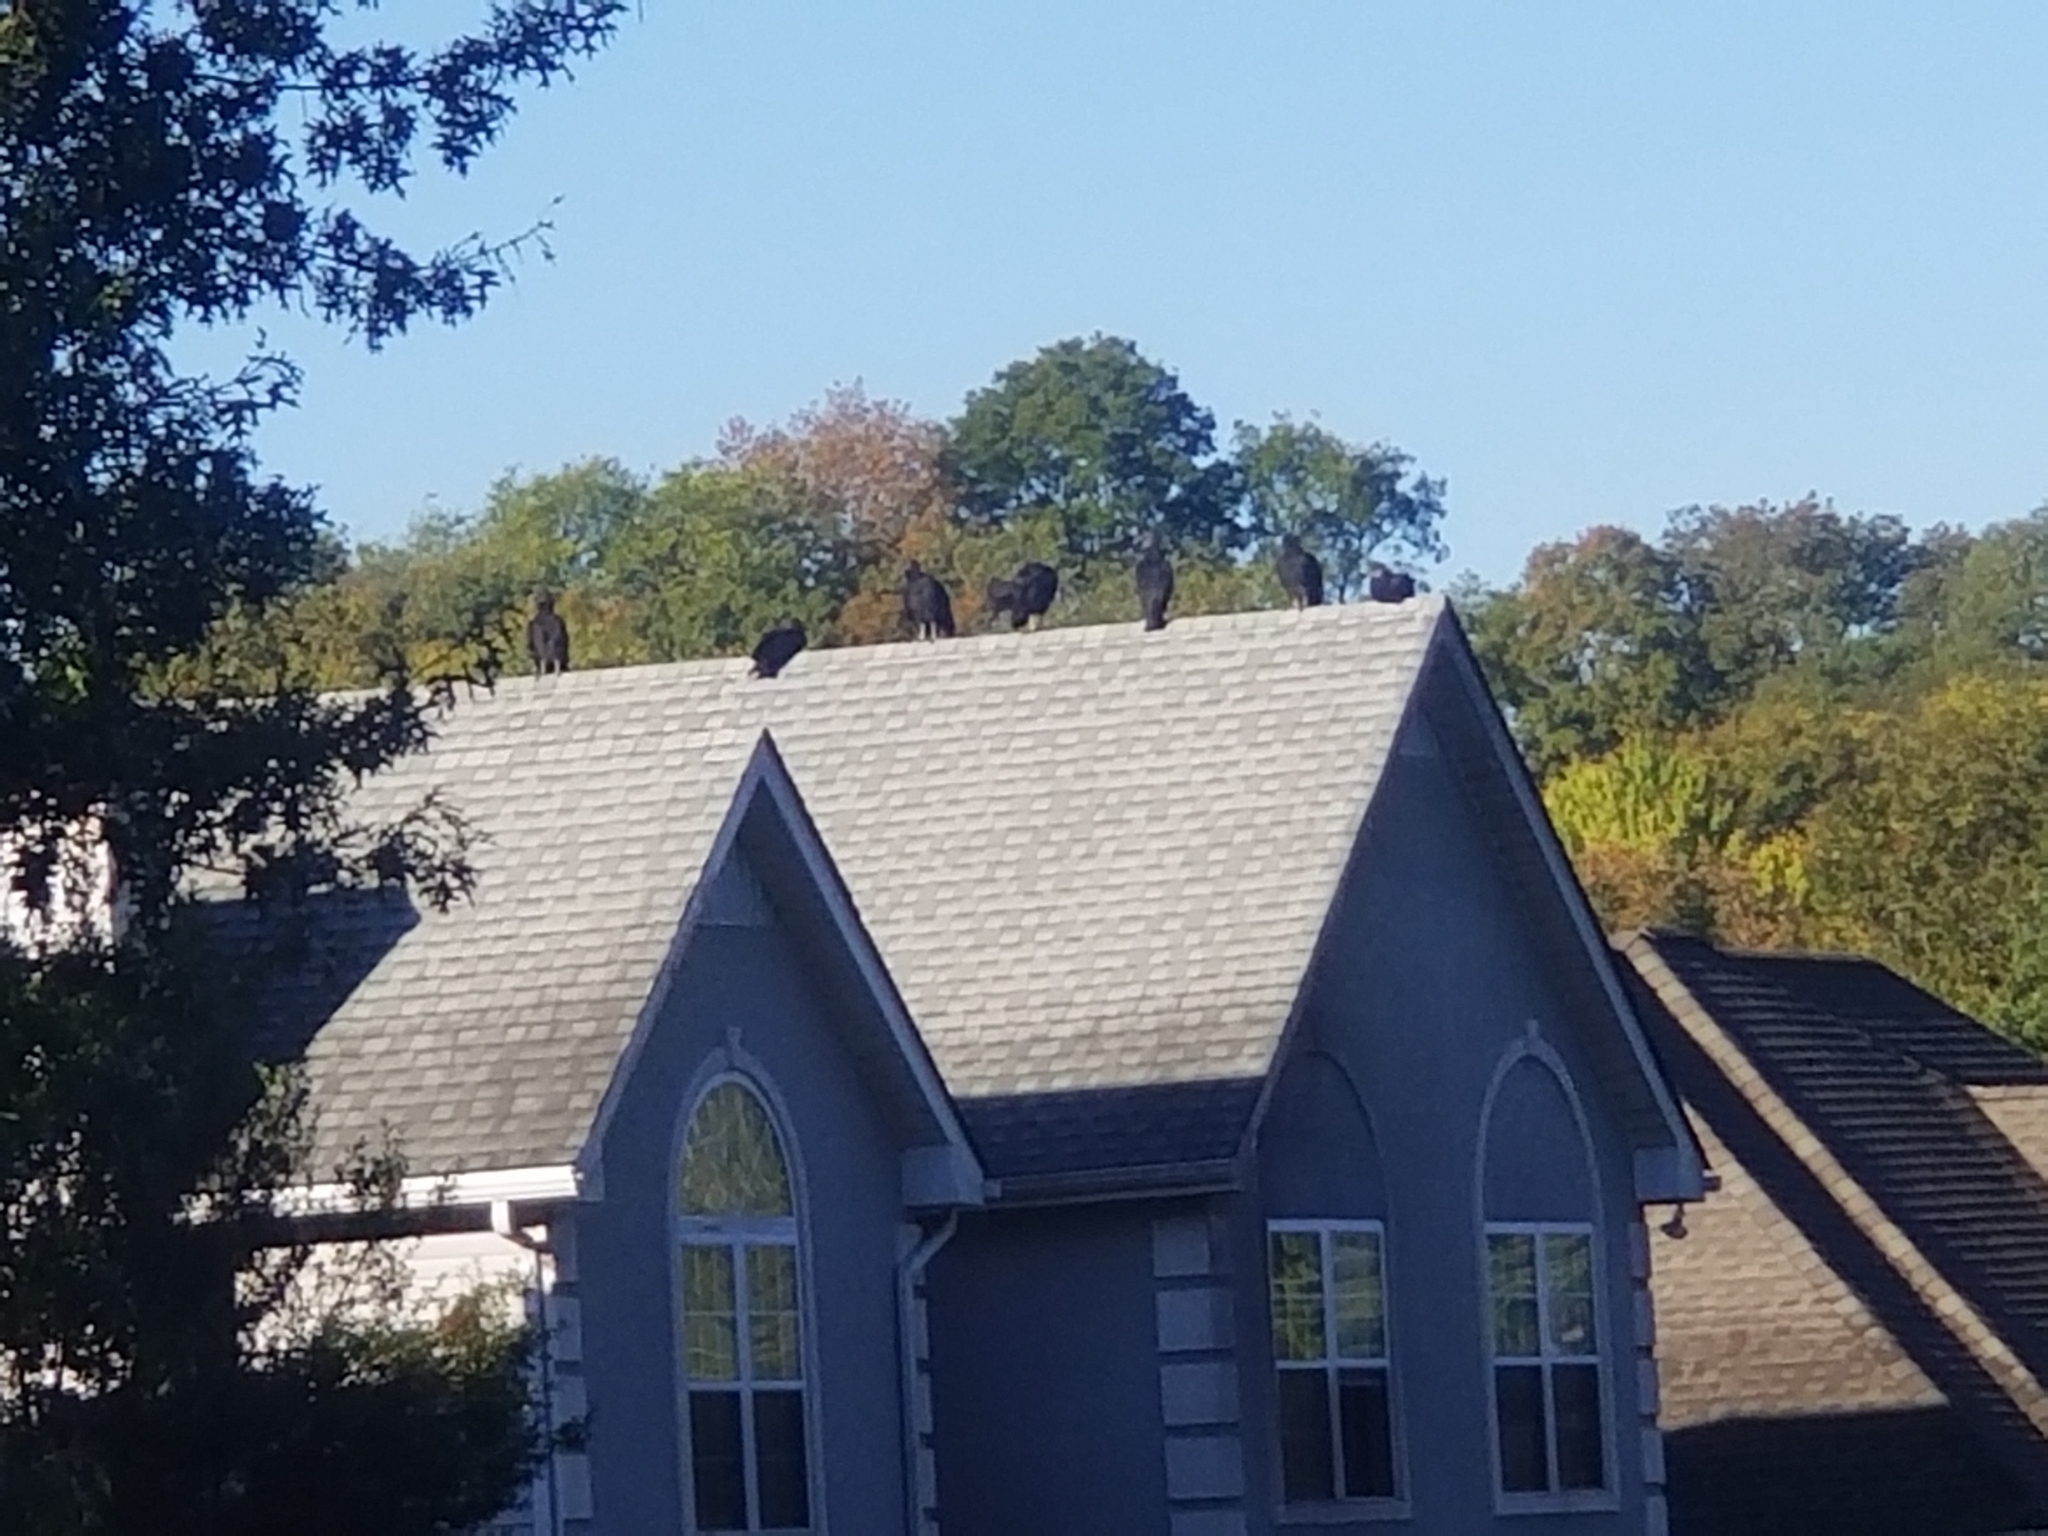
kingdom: Animalia
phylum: Chordata
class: Aves
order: Accipitriformes
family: Cathartidae
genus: Coragyps
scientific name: Coragyps atratus
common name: Black vulture
